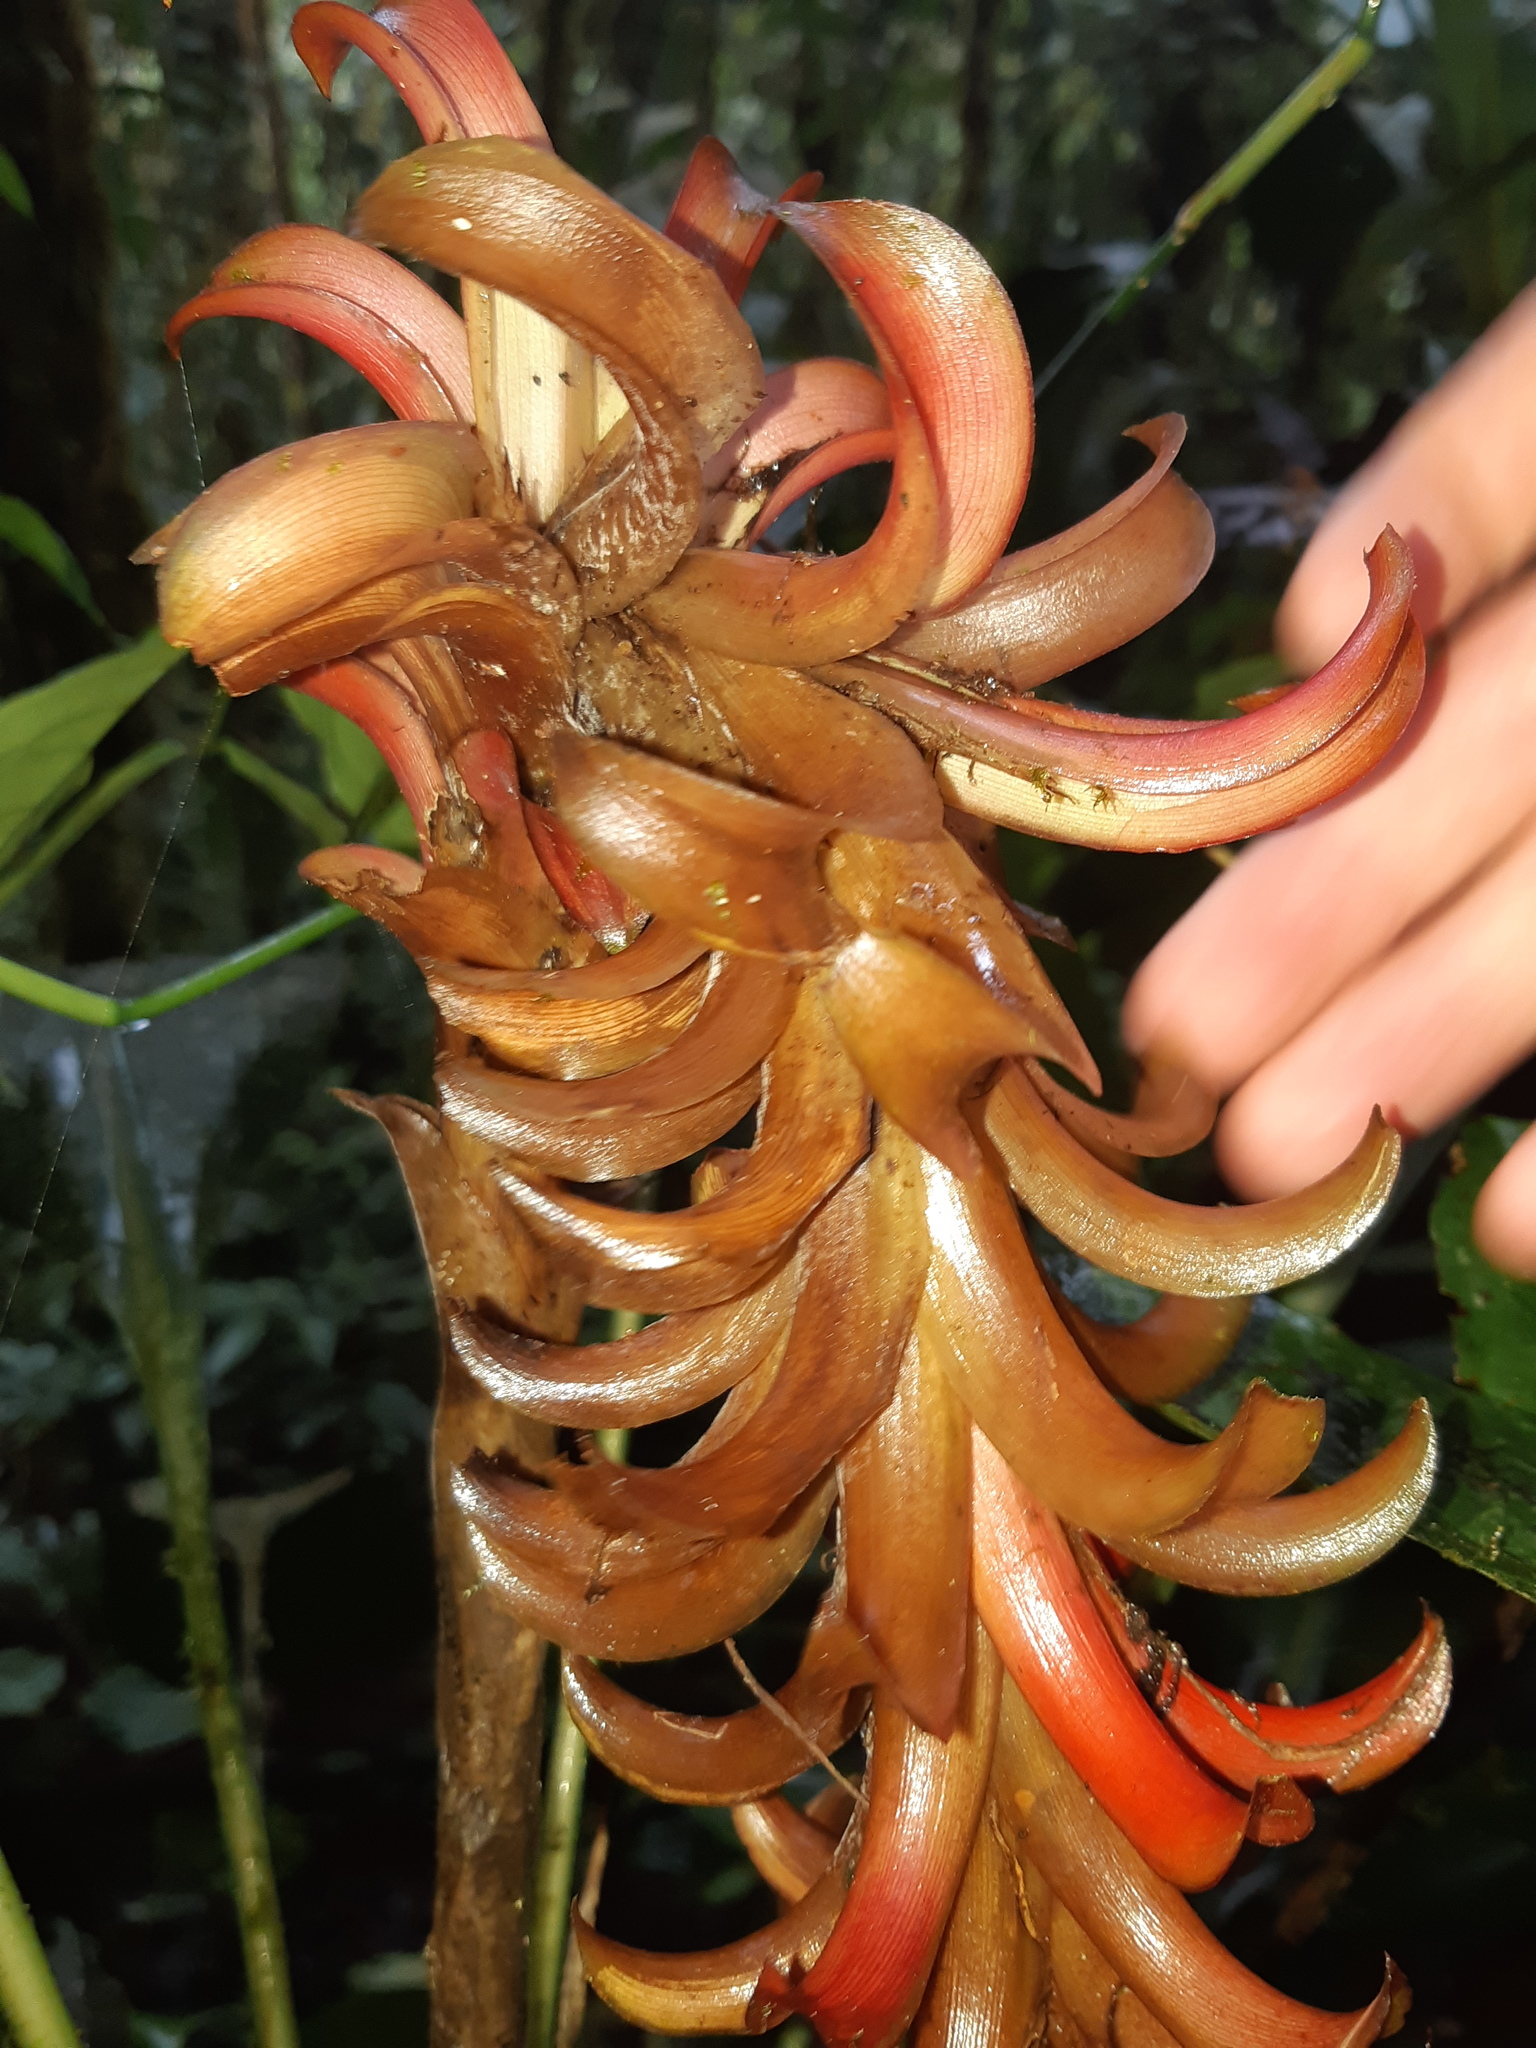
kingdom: Plantae
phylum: Tracheophyta
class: Liliopsida
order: Poales
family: Bromeliaceae
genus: Pitcairnia
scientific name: Pitcairnia nigra
